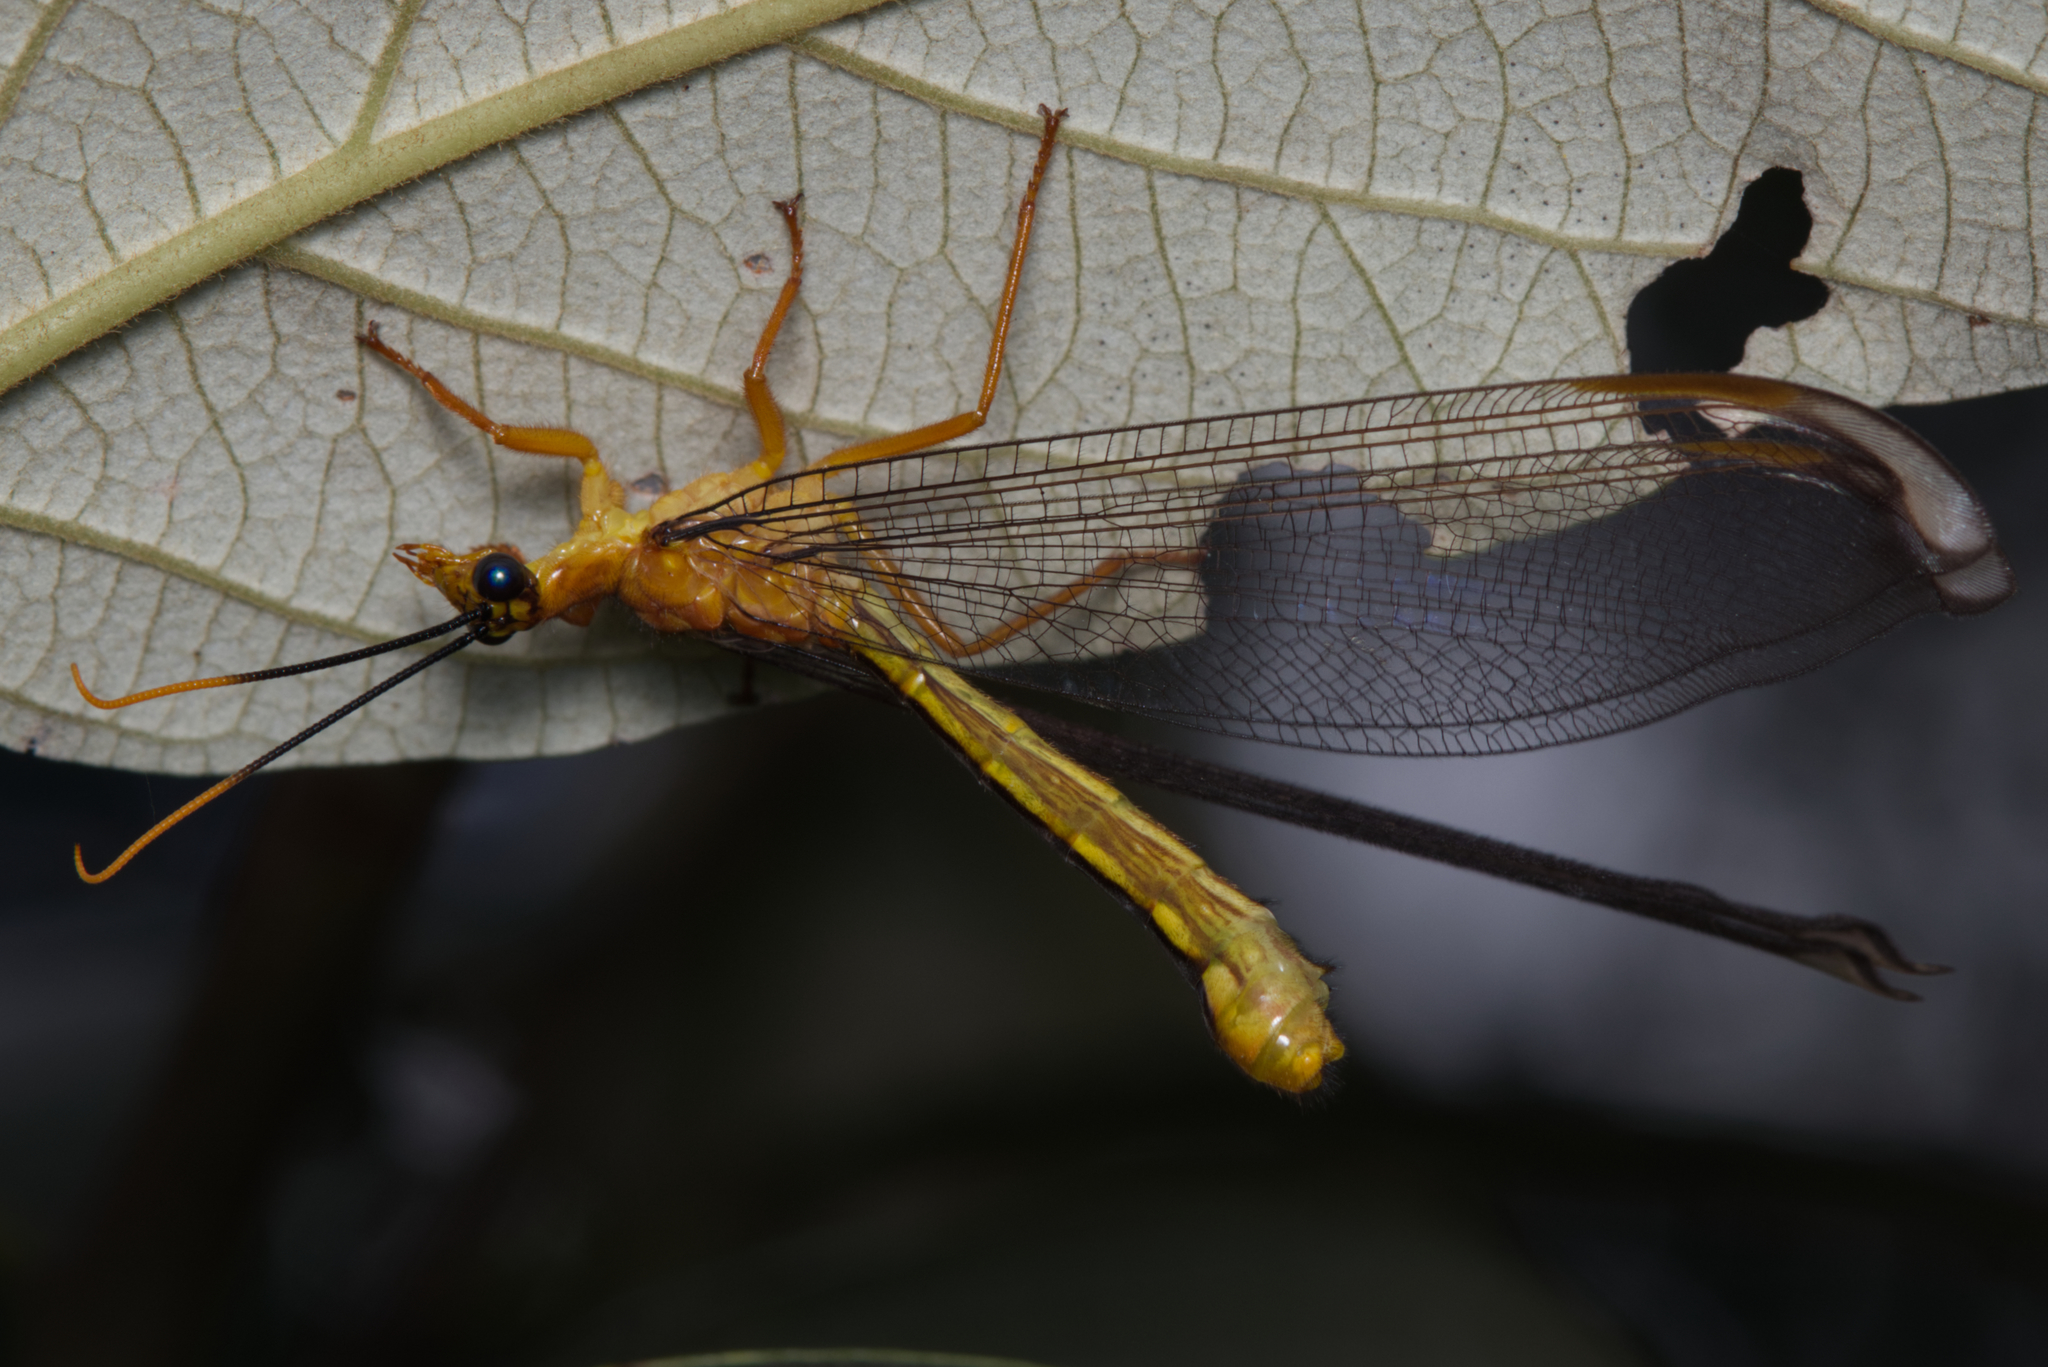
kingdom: Animalia
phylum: Arthropoda
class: Insecta
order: Neuroptera
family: Nymphidae
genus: Nymphes
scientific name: Nymphes myrmeleonoides
